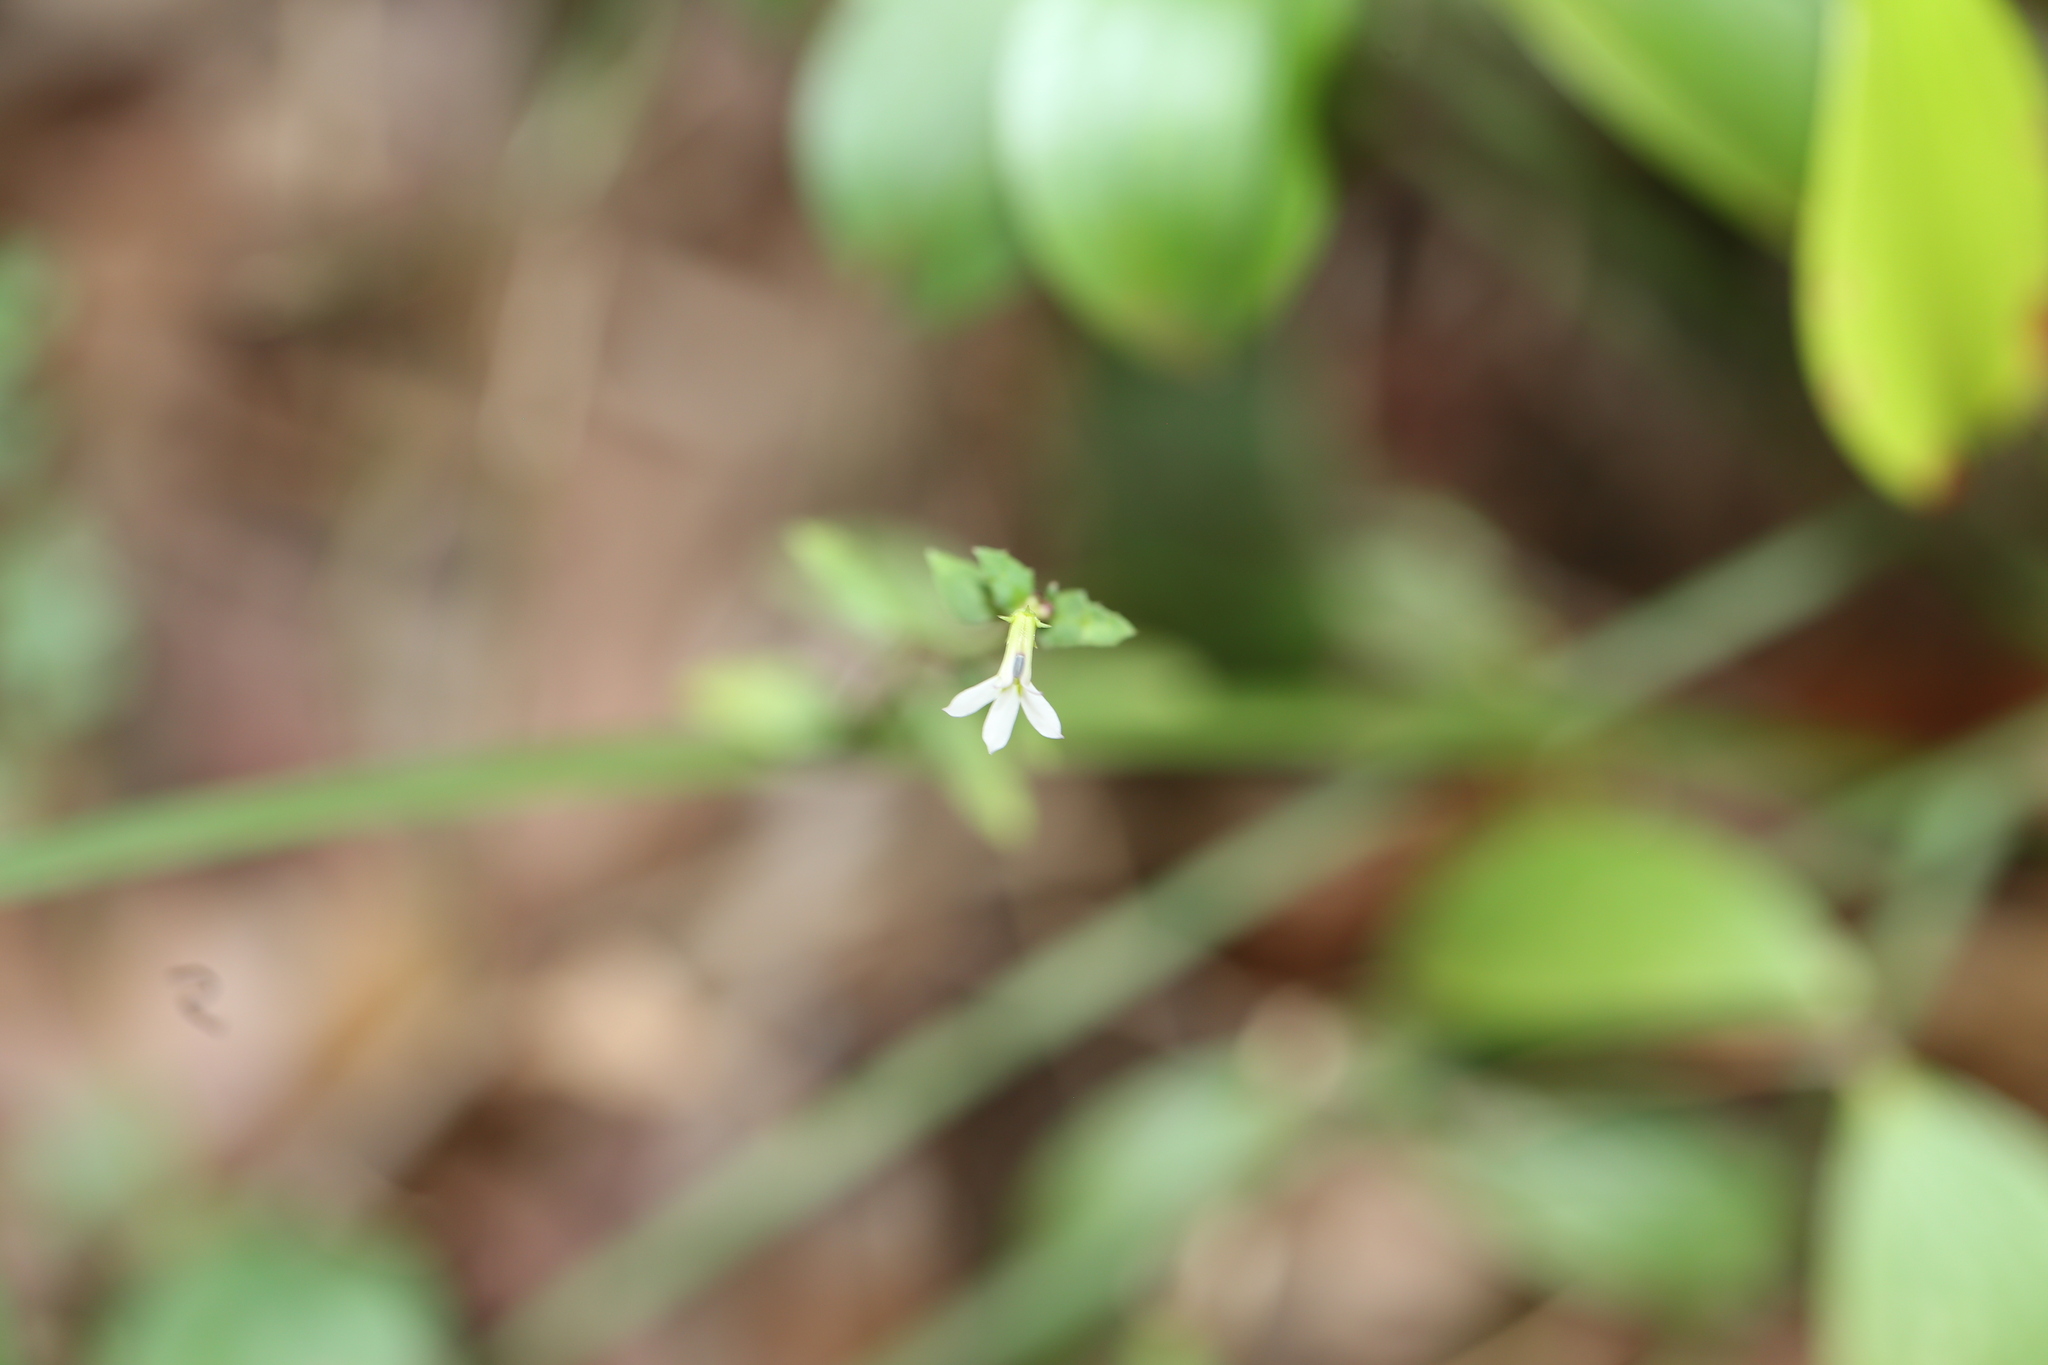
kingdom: Plantae
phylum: Tracheophyta
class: Magnoliopsida
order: Asterales
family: Campanulaceae
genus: Lobelia
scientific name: Lobelia purpurascens
